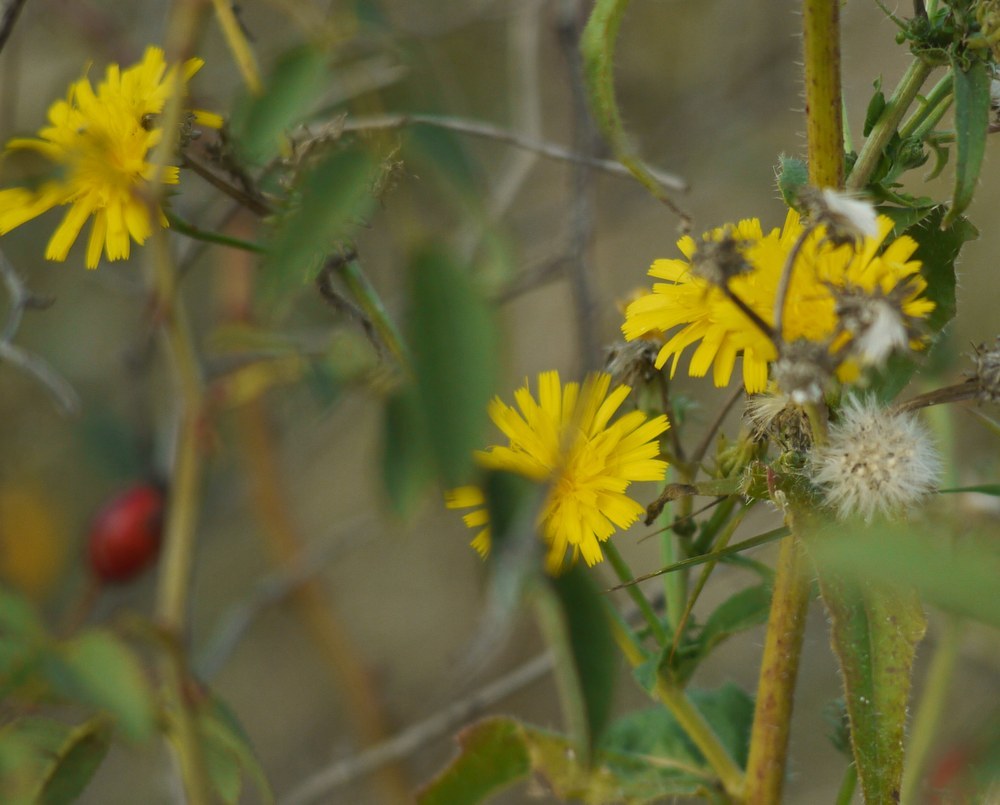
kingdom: Plantae
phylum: Tracheophyta
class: Magnoliopsida
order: Asterales
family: Asteraceae
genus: Picris
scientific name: Picris hieracioides
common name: Hawkweed oxtongue
